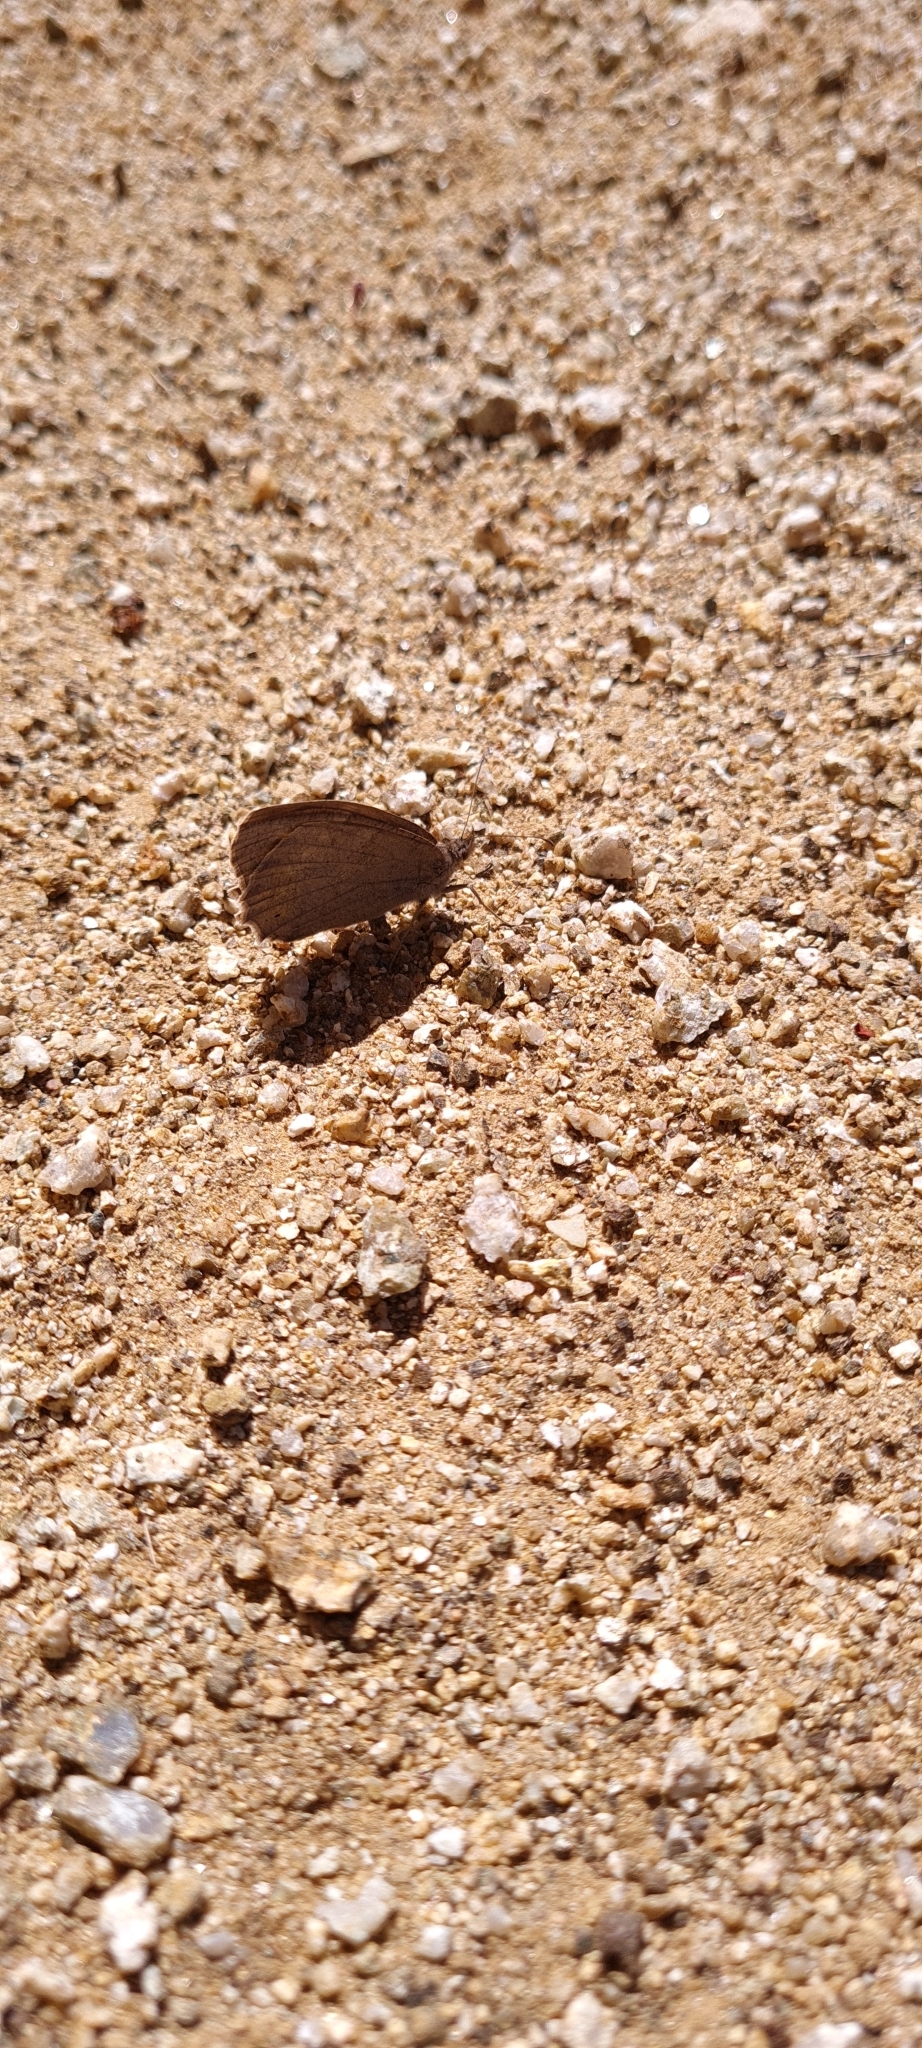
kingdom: Animalia
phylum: Arthropoda
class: Insecta
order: Lepidoptera
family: Nymphalidae
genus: Hipparchia
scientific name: Hipparchia statilinus
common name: Tree grayling
